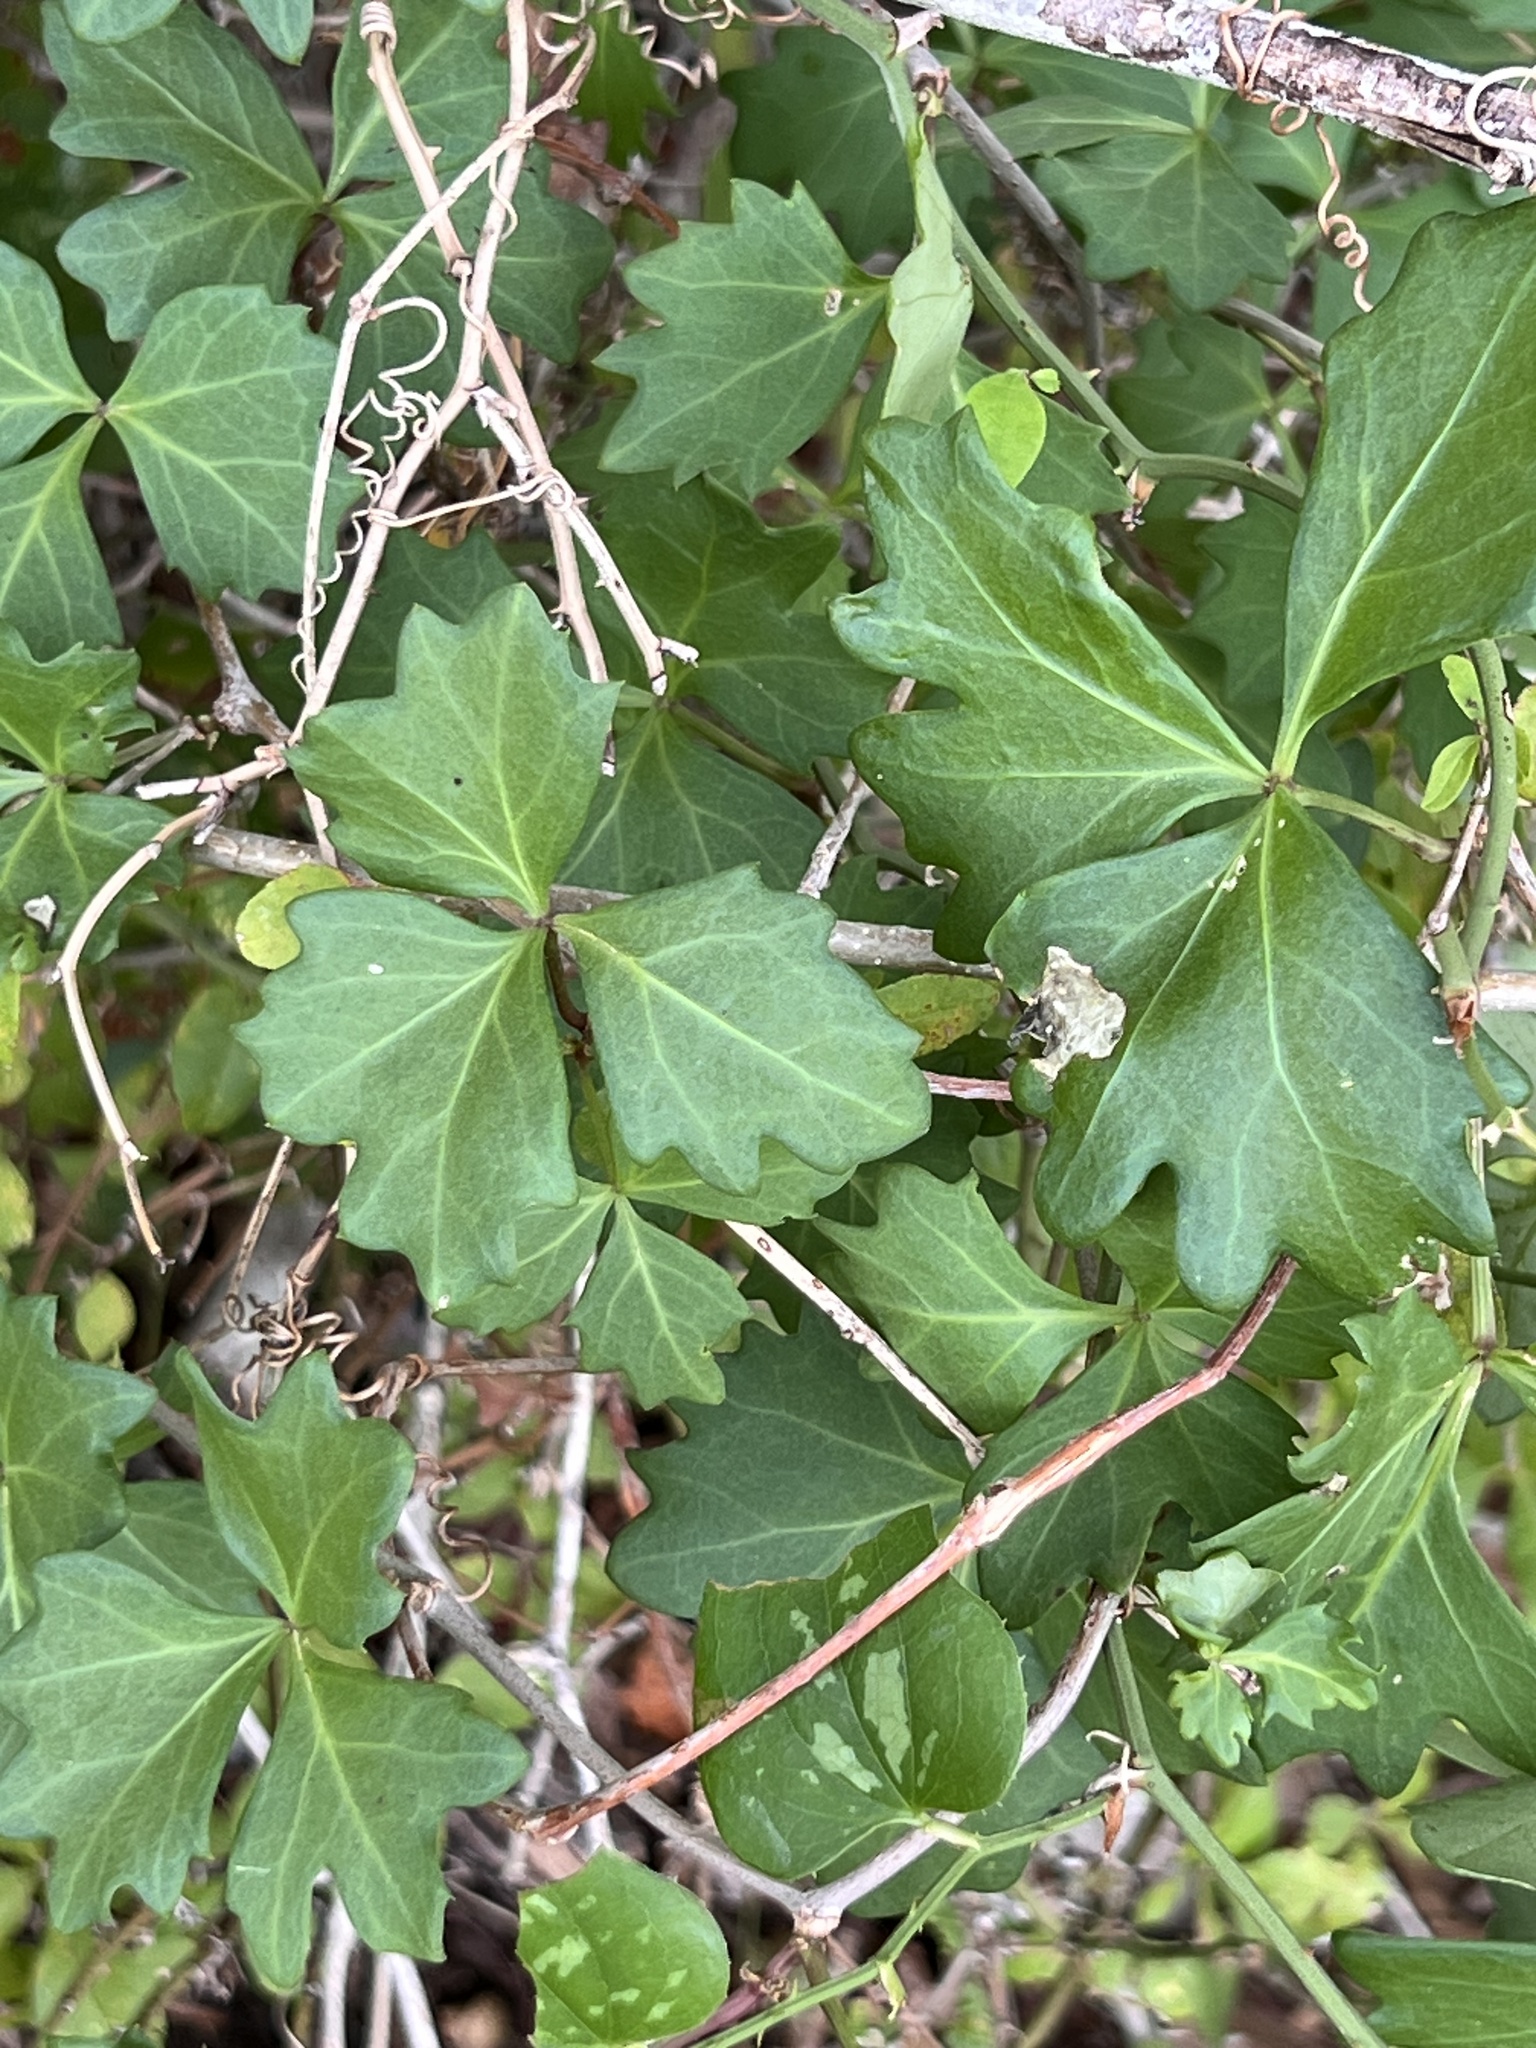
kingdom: Plantae
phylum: Tracheophyta
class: Magnoliopsida
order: Vitales
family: Vitaceae
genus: Cissus
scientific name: Cissus trifoliata
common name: Vine-sorrel
